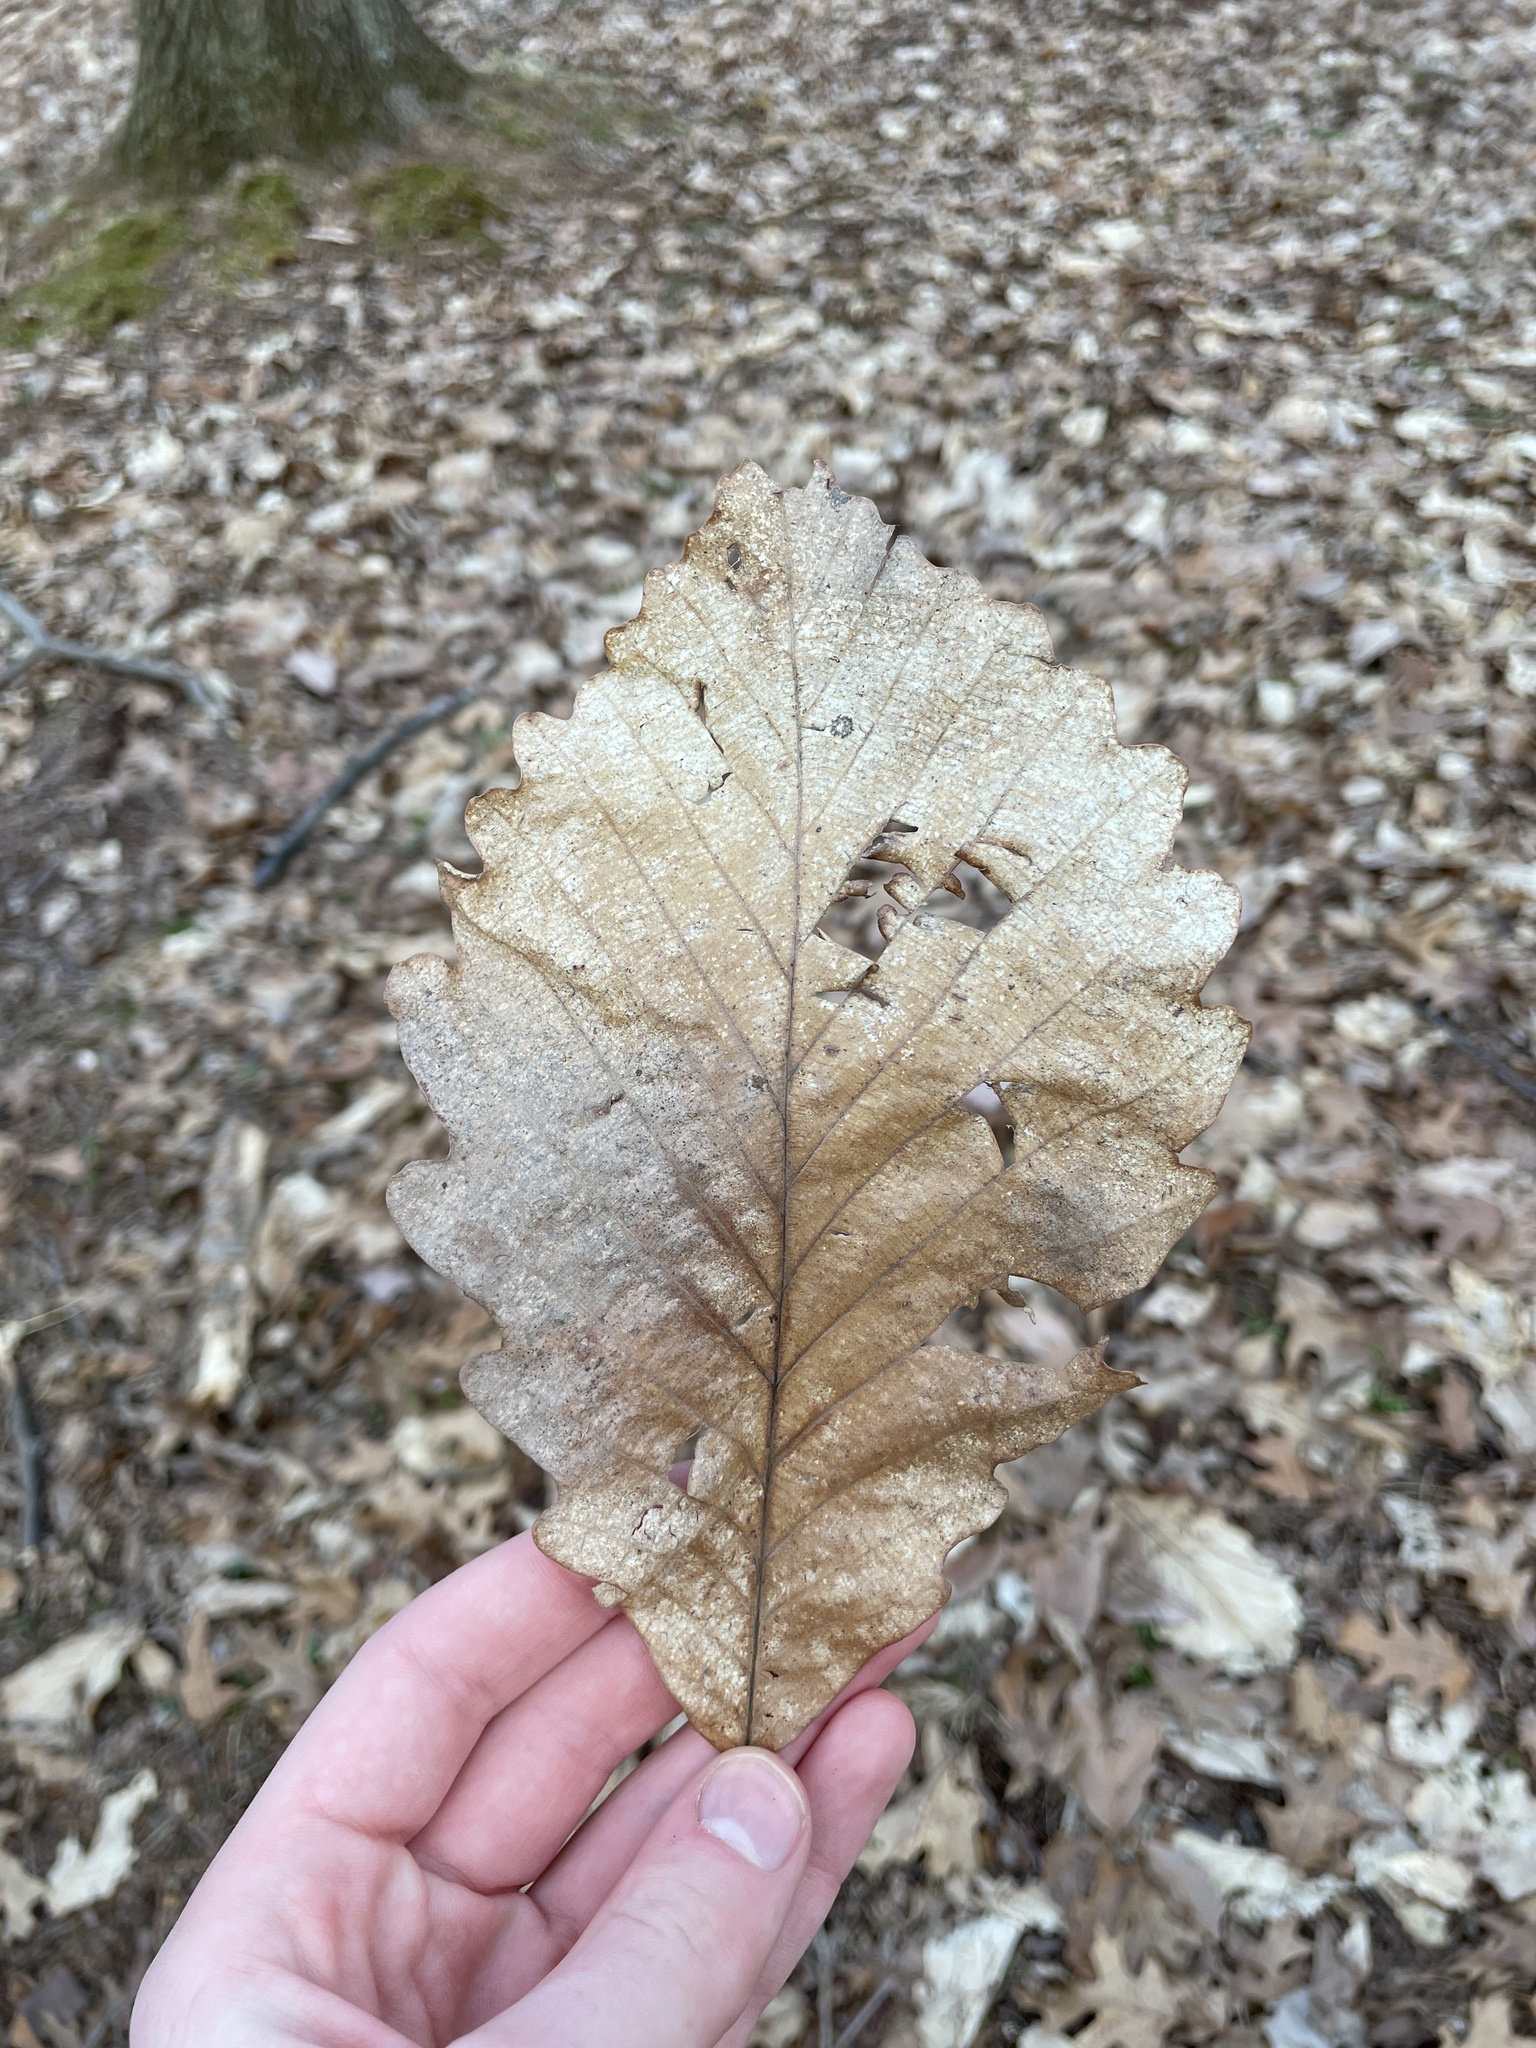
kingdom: Plantae
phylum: Tracheophyta
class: Magnoliopsida
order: Fagales
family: Fagaceae
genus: Quercus
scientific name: Quercus montana
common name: Chestnut oak
